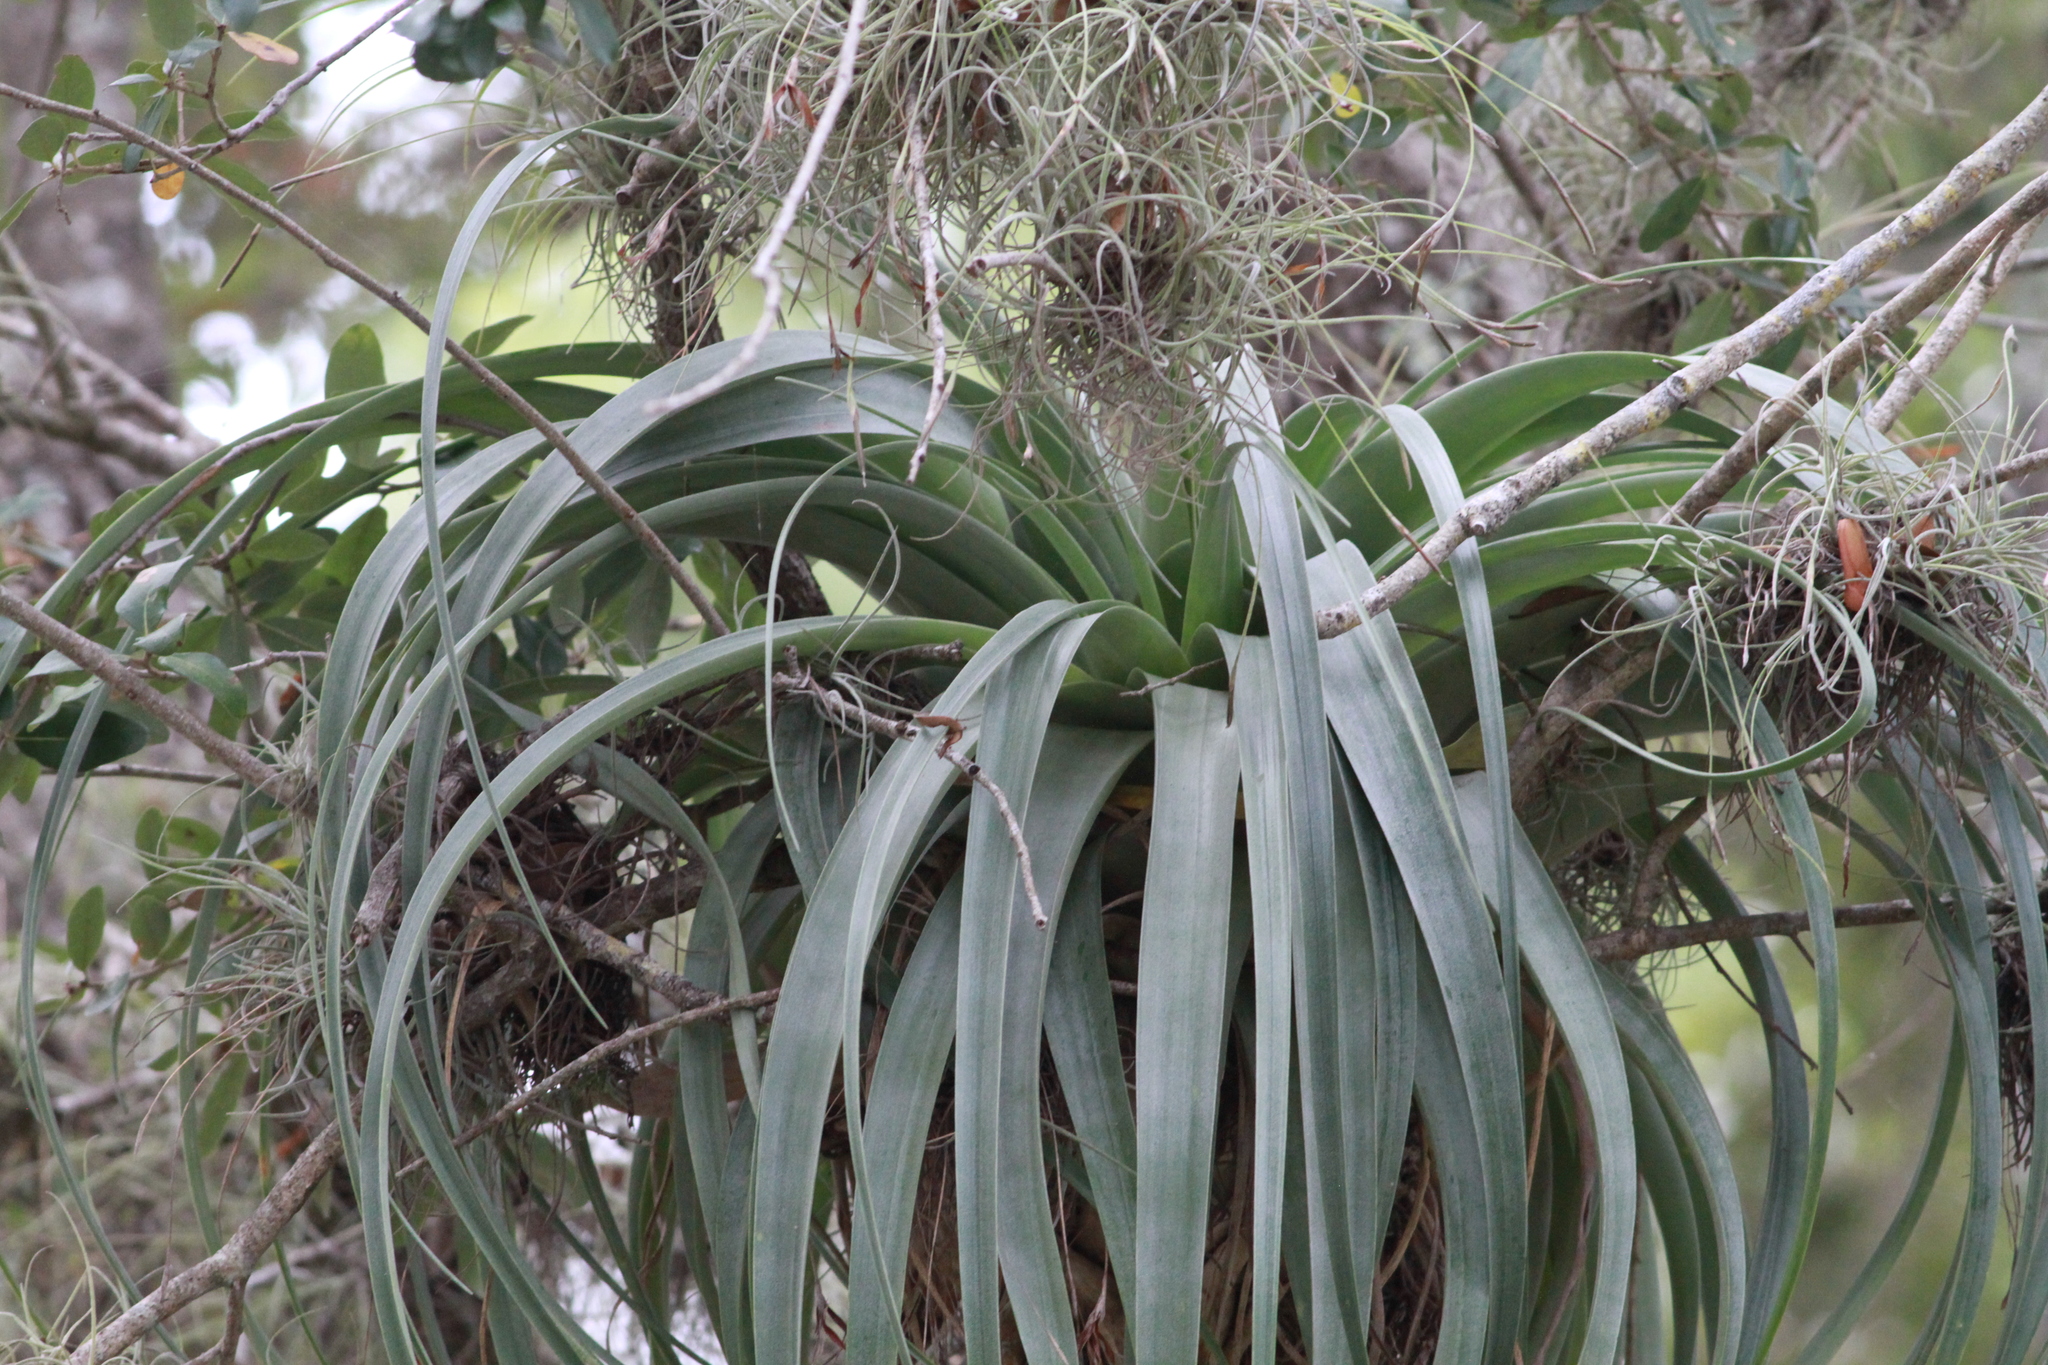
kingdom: Plantae
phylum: Tracheophyta
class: Liliopsida
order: Poales
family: Bromeliaceae
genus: Tillandsia
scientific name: Tillandsia utriculata
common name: Wild pine
